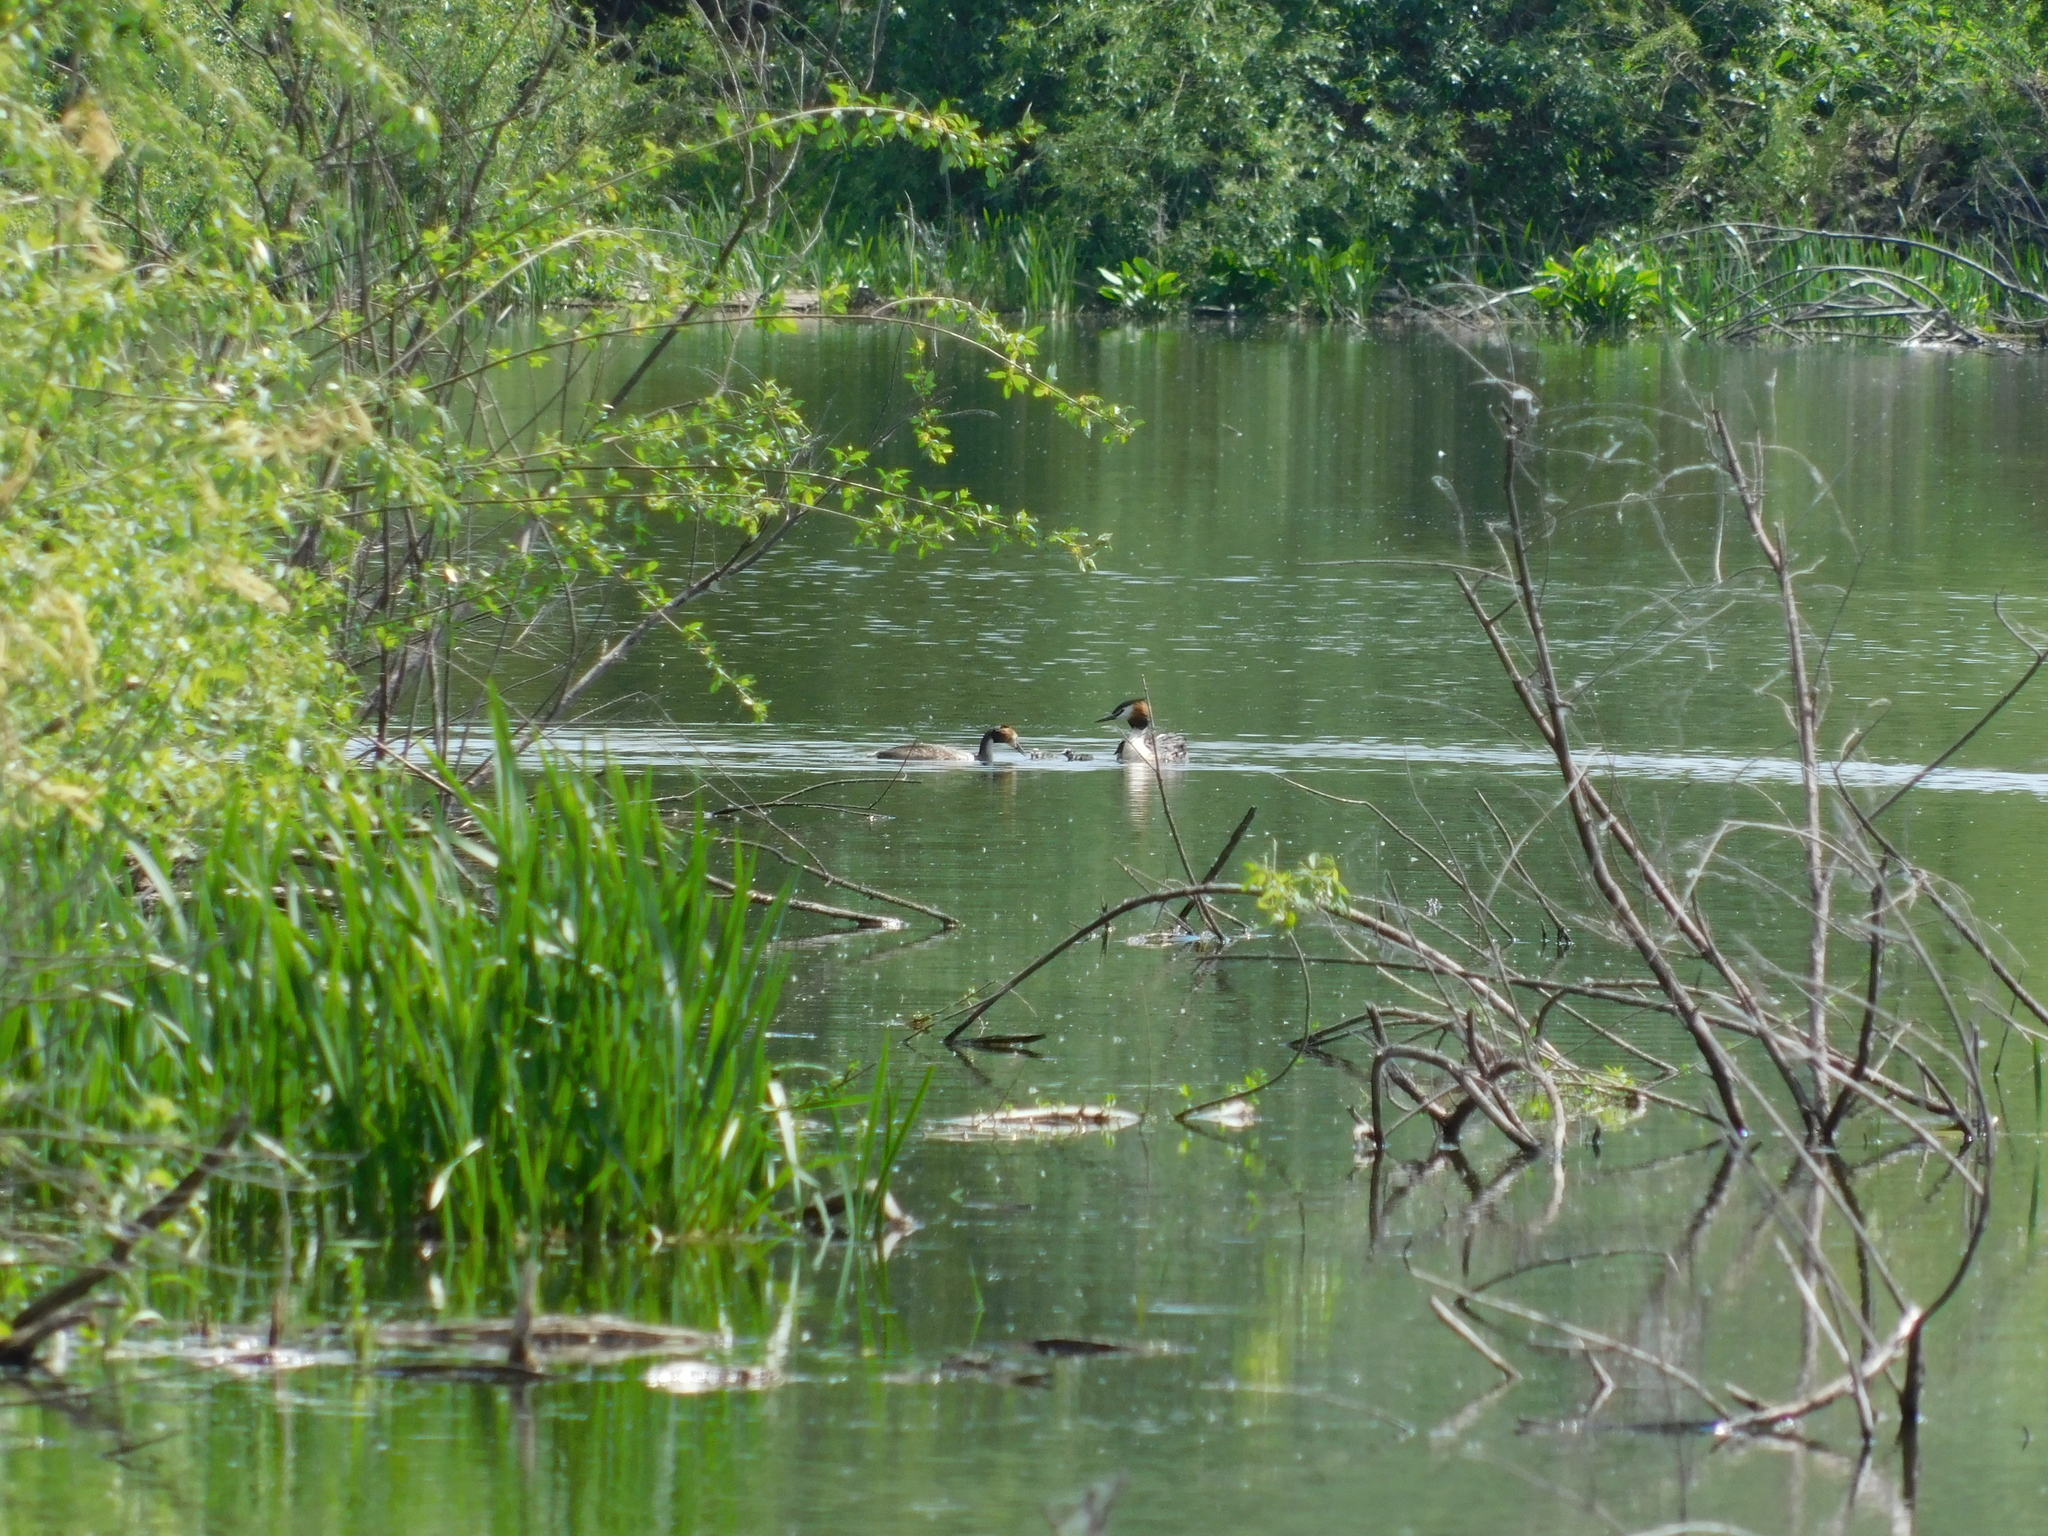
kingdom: Animalia
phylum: Chordata
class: Aves
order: Podicipediformes
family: Podicipedidae
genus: Podiceps
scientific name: Podiceps cristatus
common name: Great crested grebe
